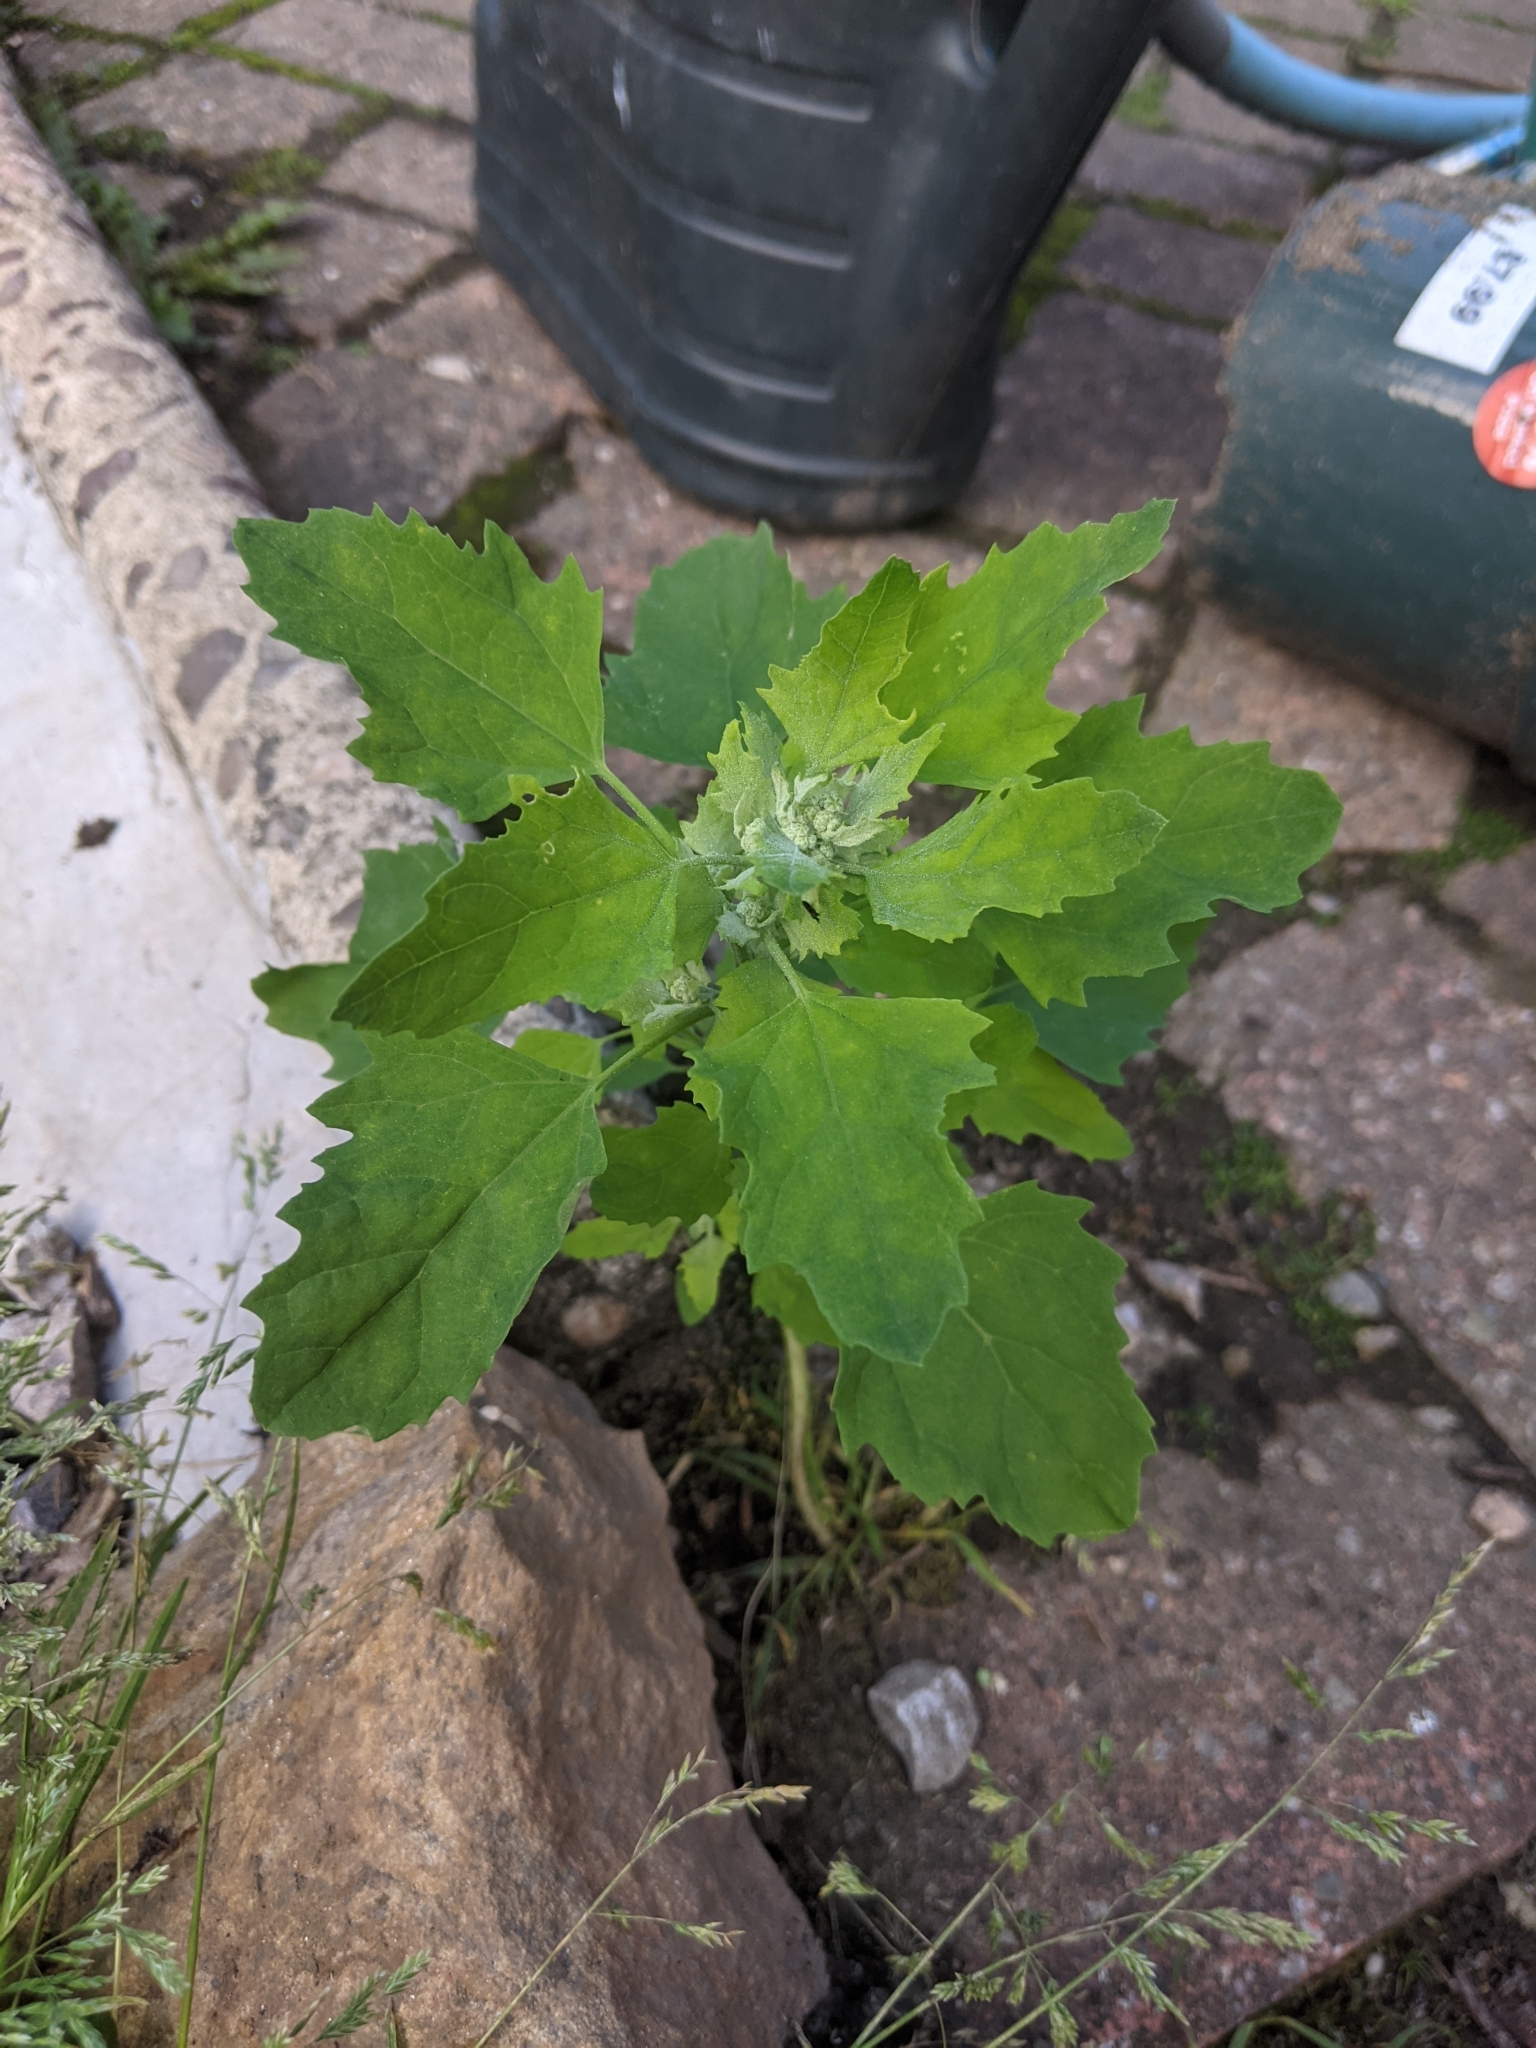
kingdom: Plantae
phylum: Tracheophyta
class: Magnoliopsida
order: Caryophyllales
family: Amaranthaceae
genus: Chenopodium
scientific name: Chenopodium album
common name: Fat-hen
